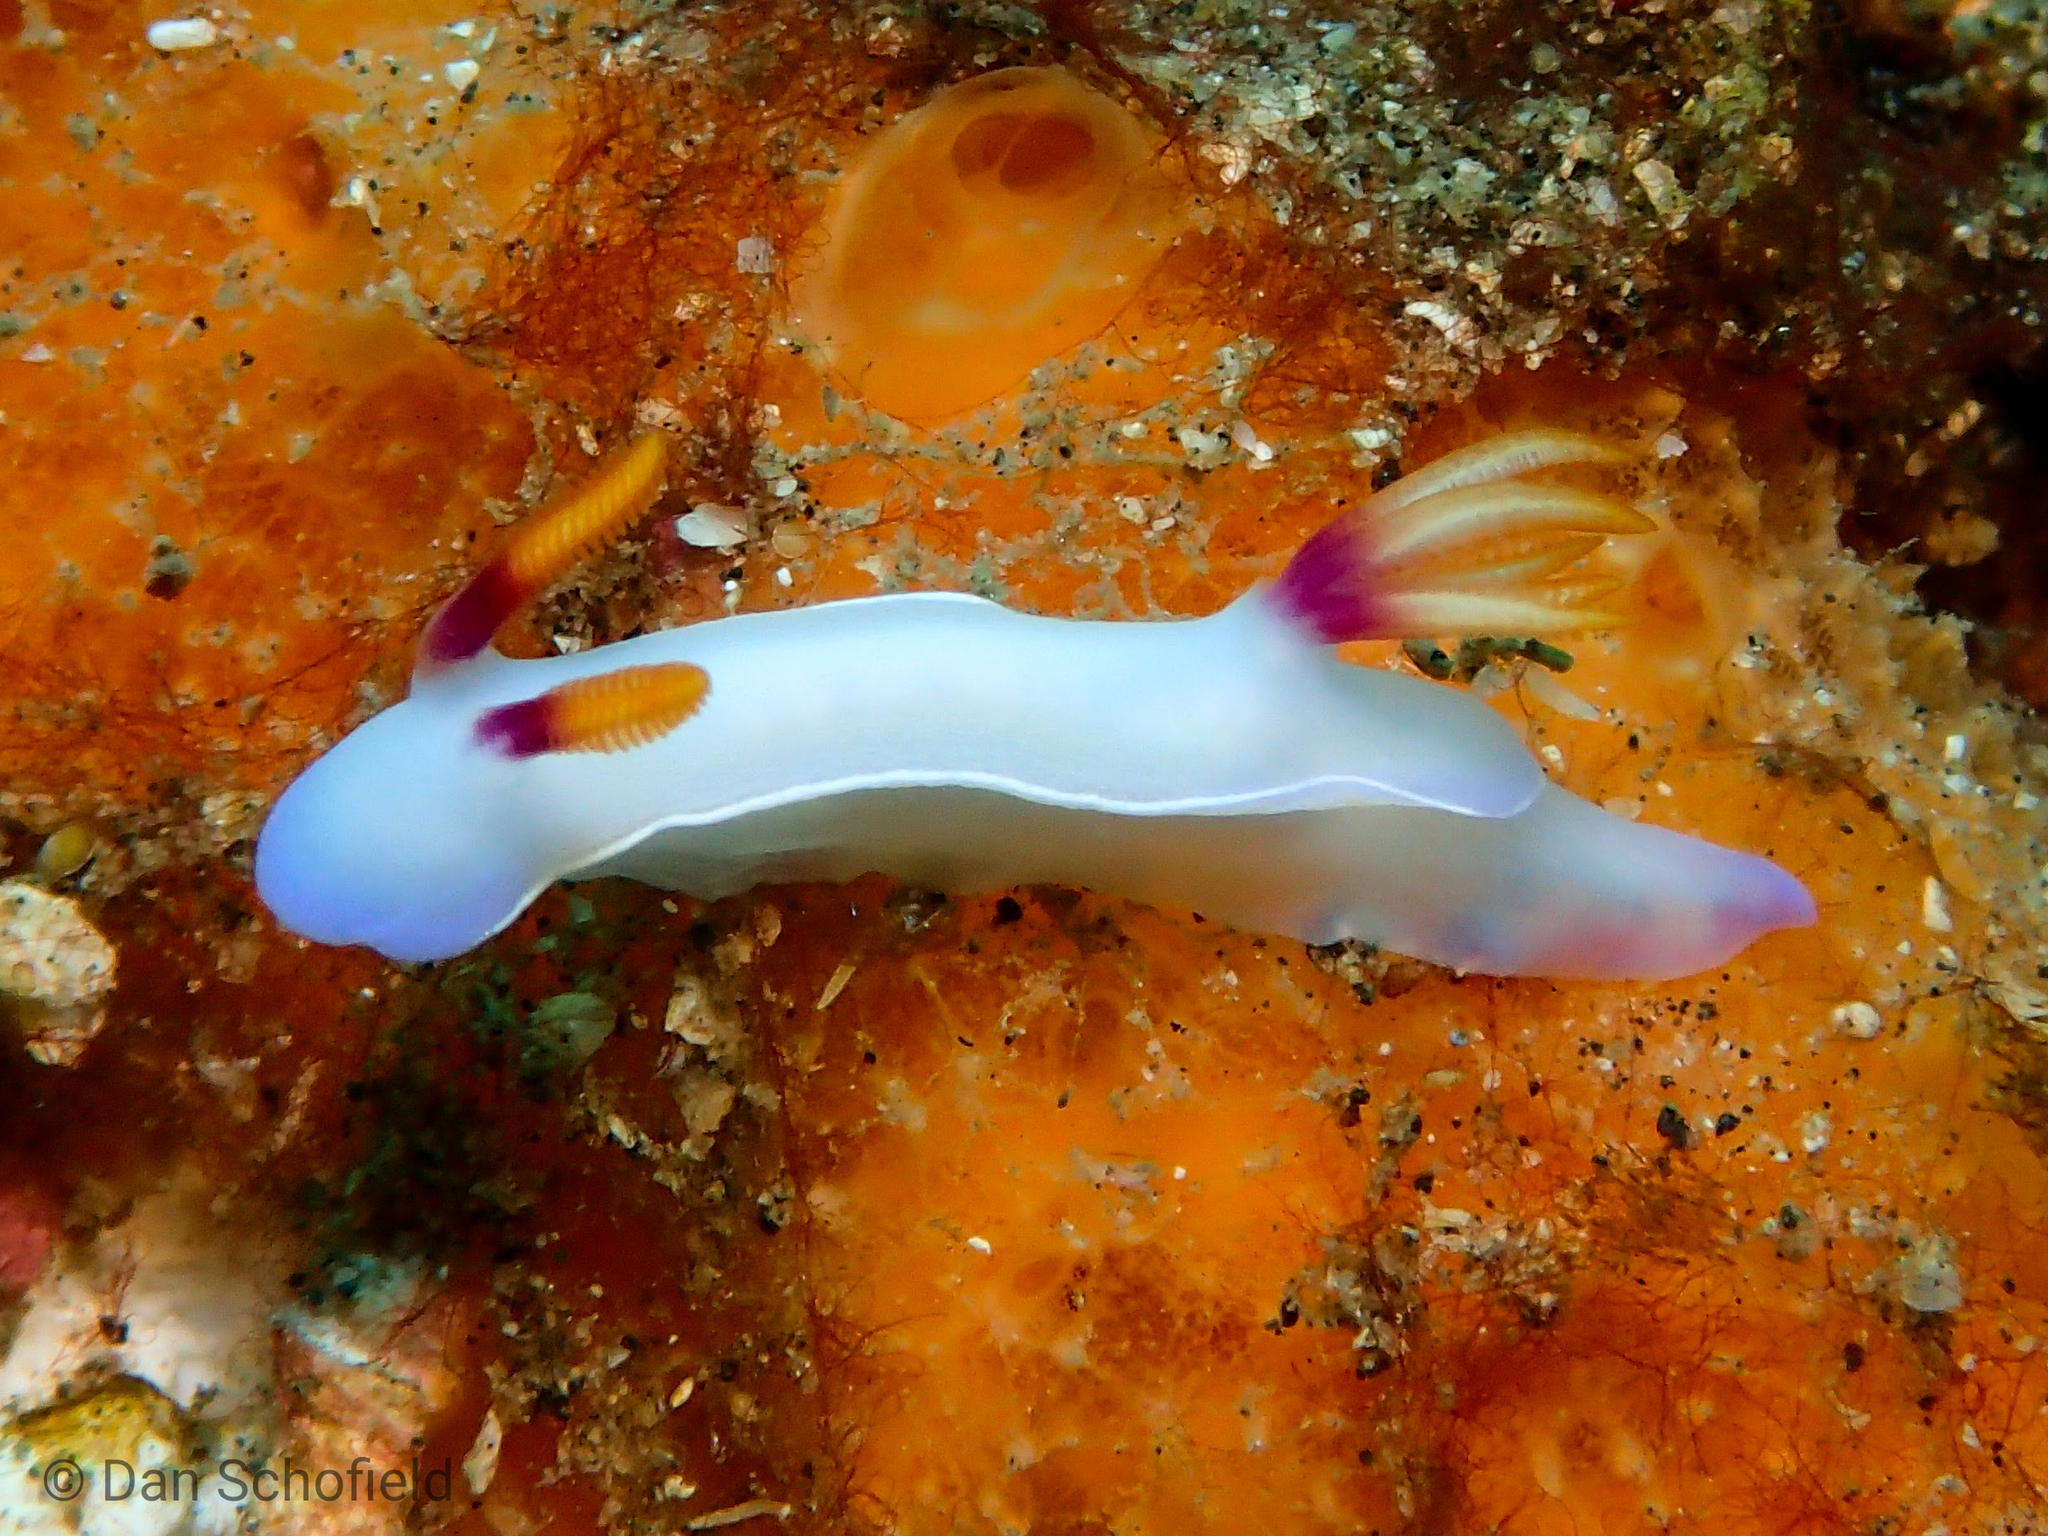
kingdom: Animalia
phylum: Mollusca
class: Gastropoda
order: Nudibranchia
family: Chromodorididae
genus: Hypselodoris
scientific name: Hypselodoris bullockii
